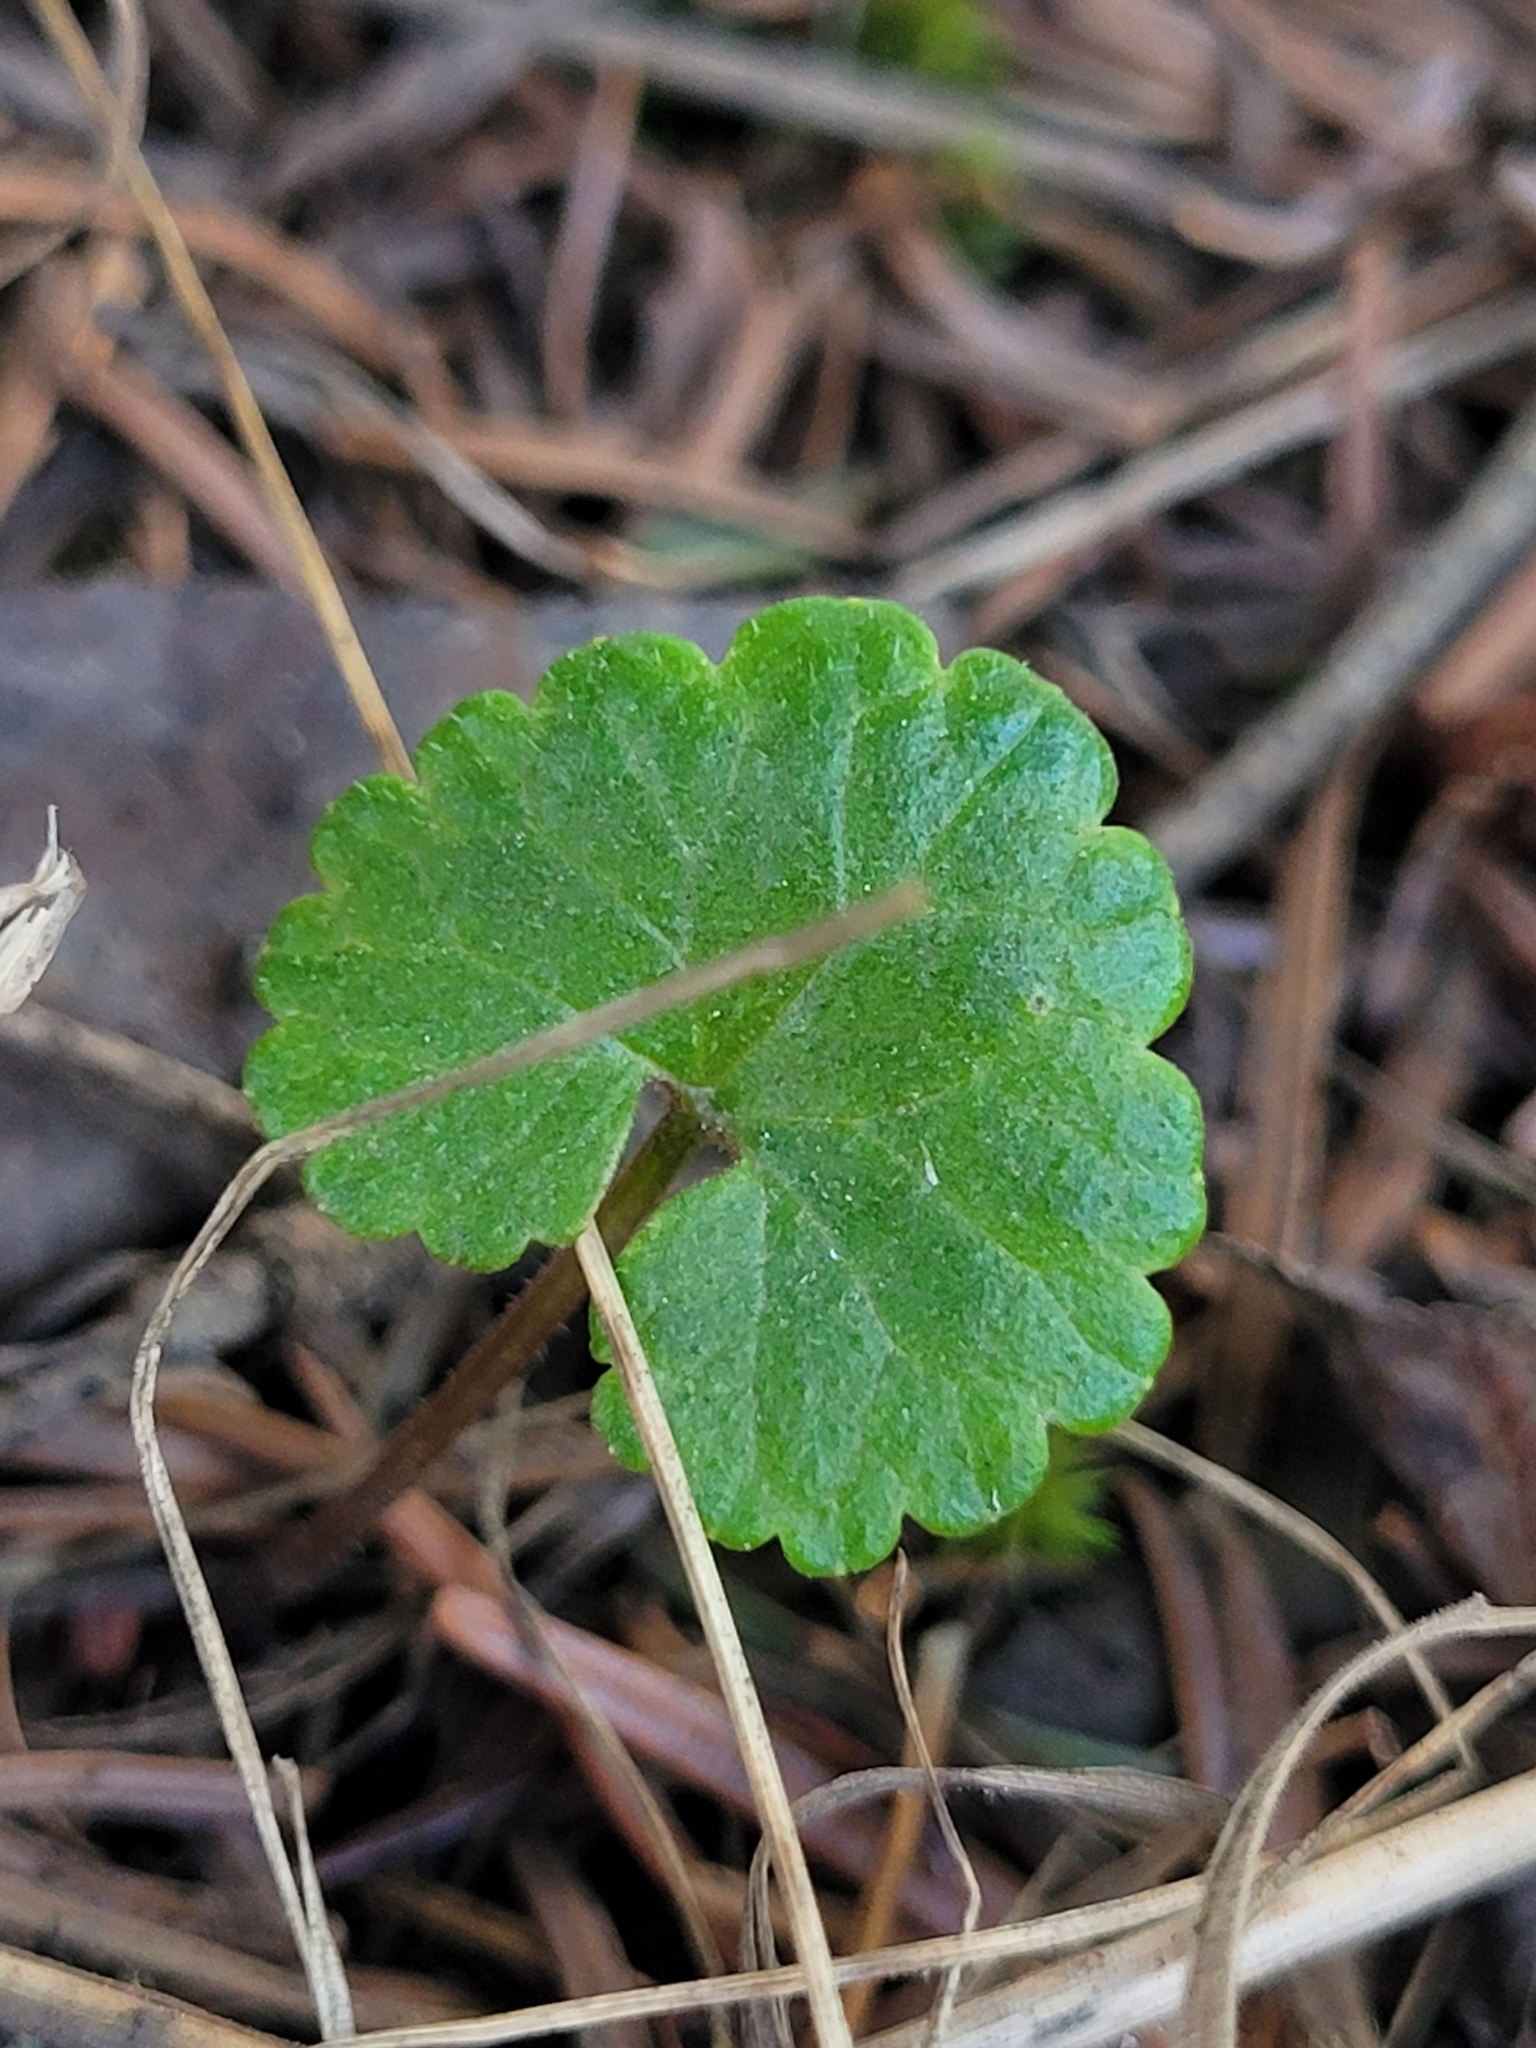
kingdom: Plantae
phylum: Tracheophyta
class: Magnoliopsida
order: Lamiales
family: Lamiaceae
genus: Glechoma
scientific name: Glechoma hederacea
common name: Ground ivy
